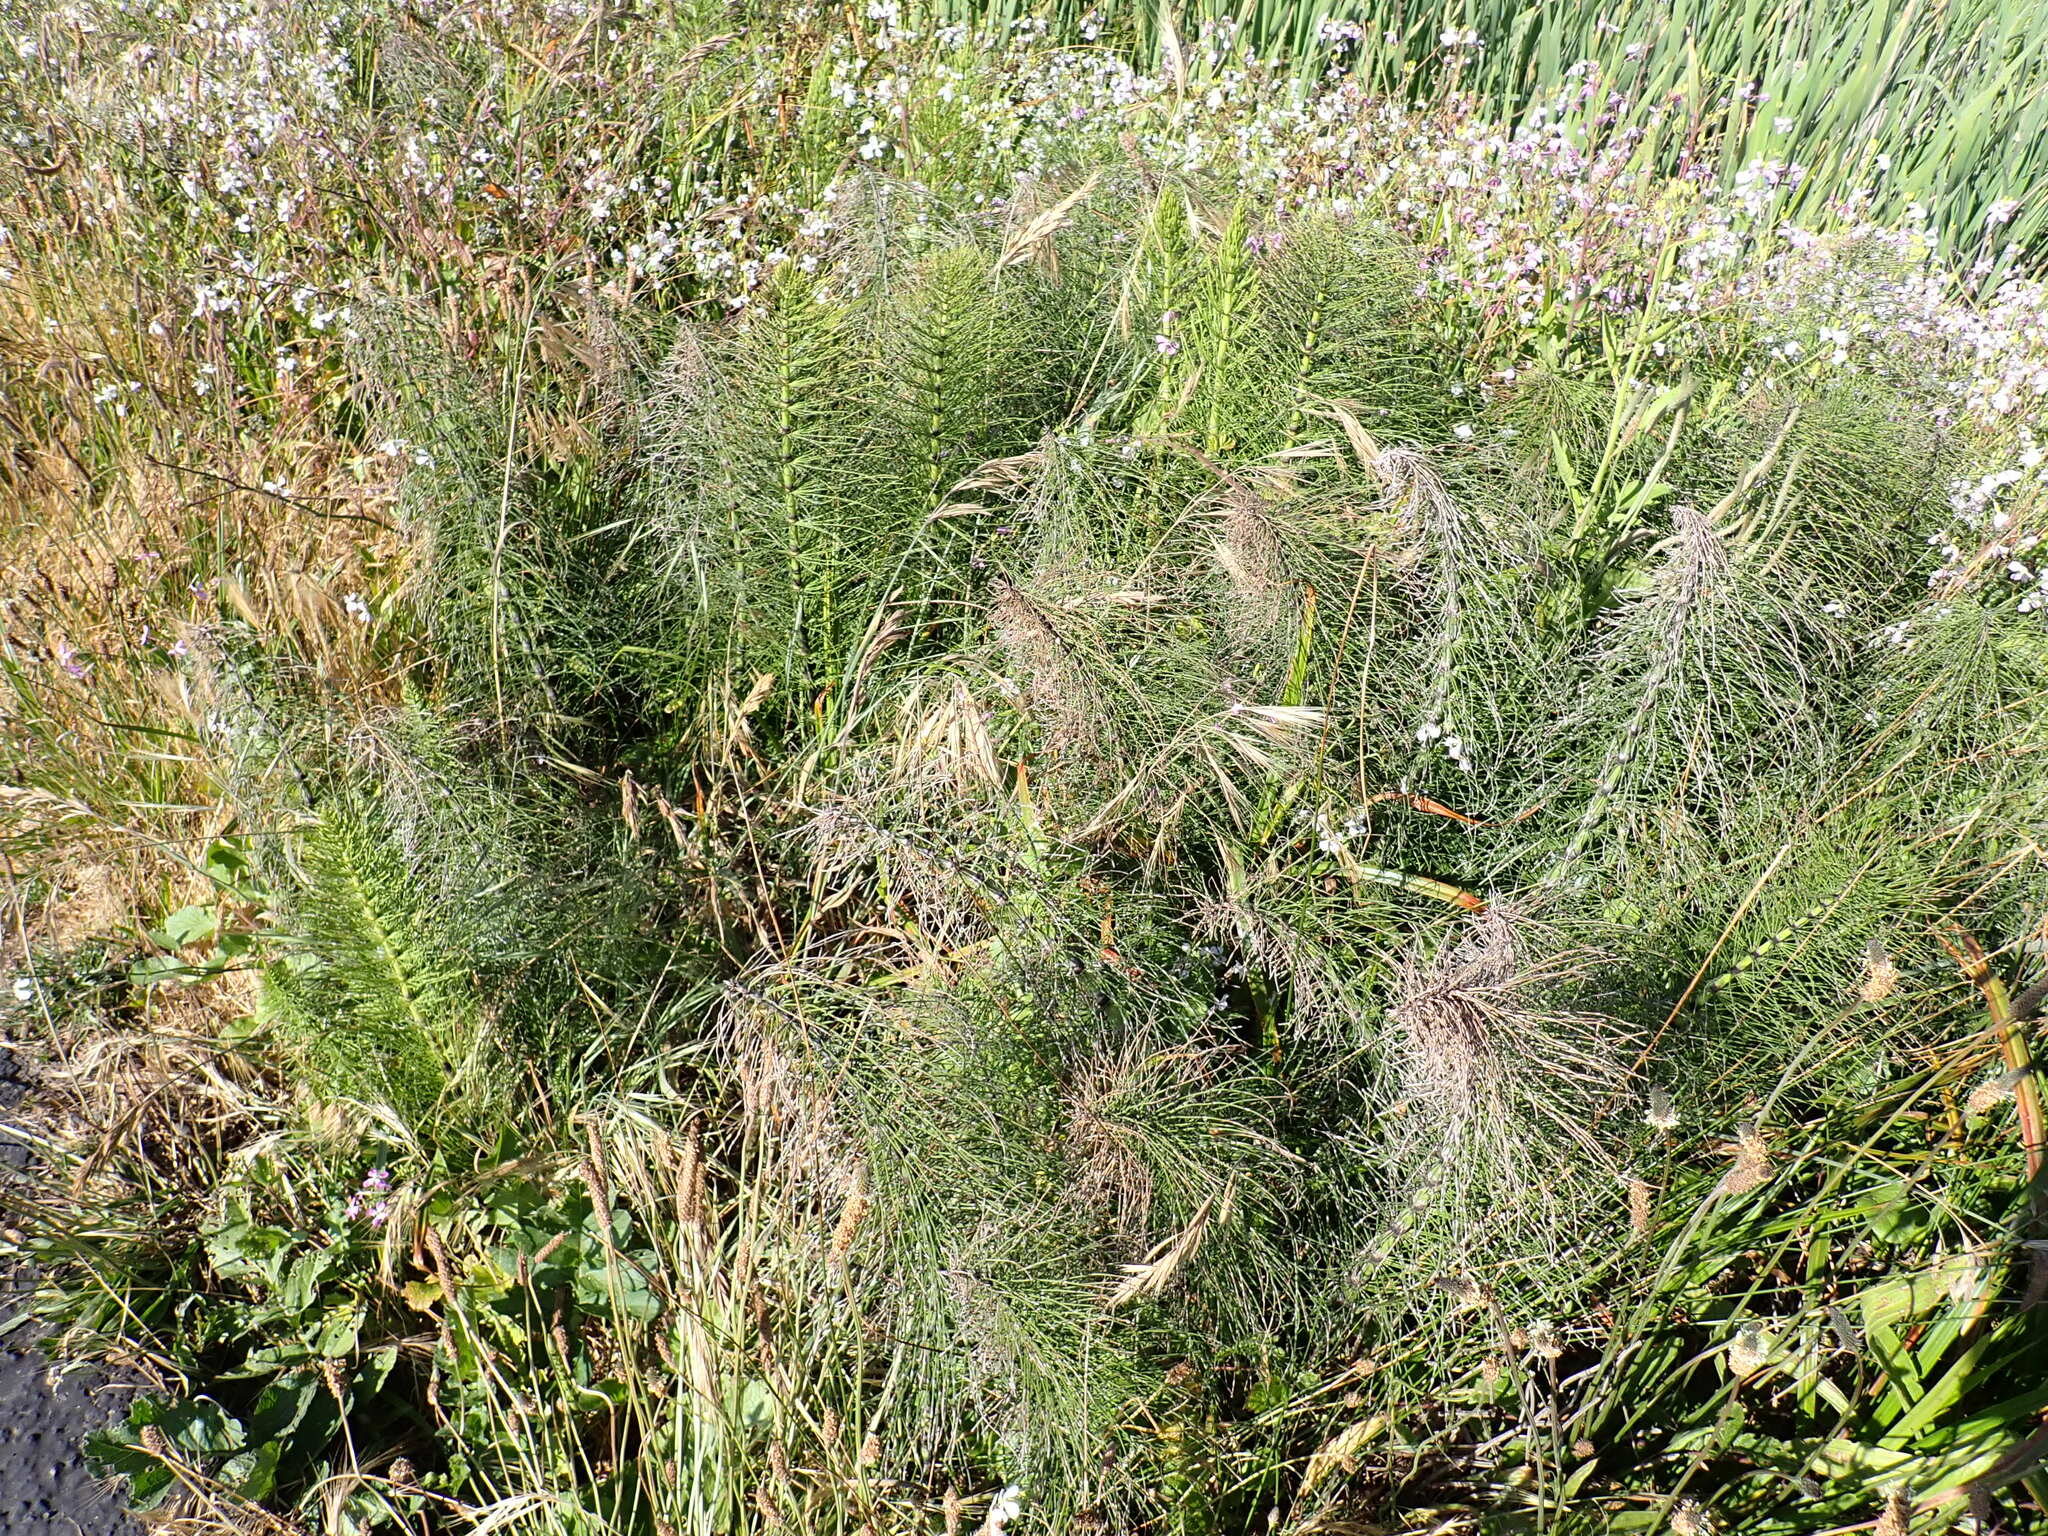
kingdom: Plantae
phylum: Tracheophyta
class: Polypodiopsida
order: Equisetales
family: Equisetaceae
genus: Equisetum
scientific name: Equisetum telmateia
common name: Great horsetail
